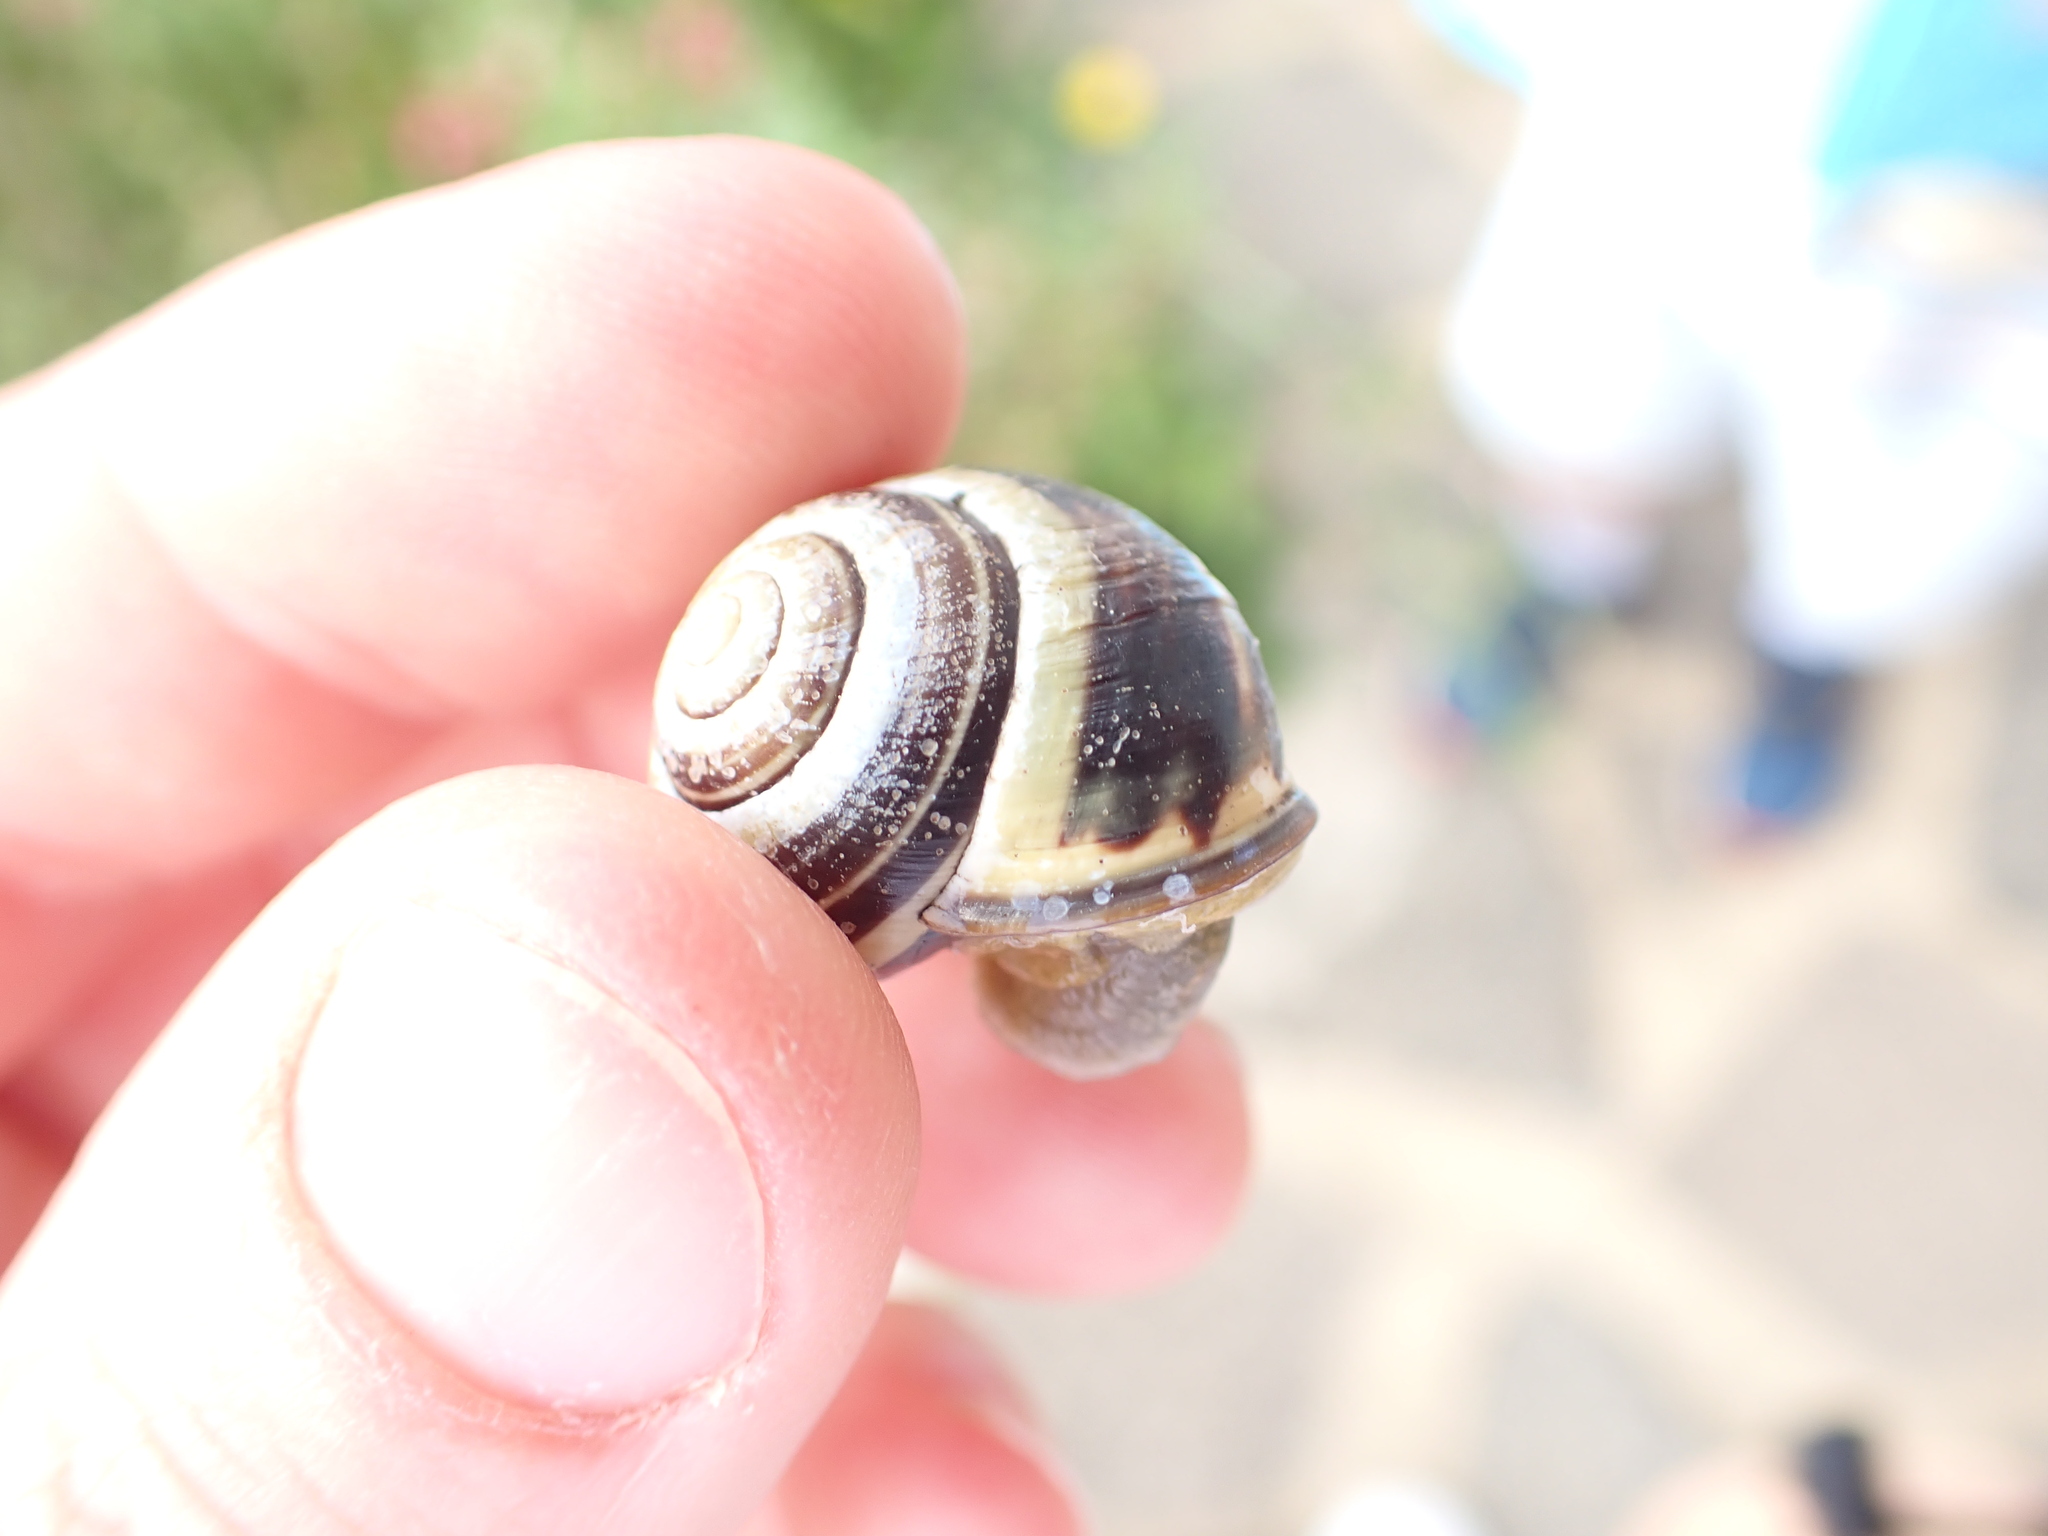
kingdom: Animalia
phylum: Mollusca
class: Gastropoda
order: Stylommatophora
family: Helicidae
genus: Cepaea
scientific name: Cepaea nemoralis
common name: Grovesnail
